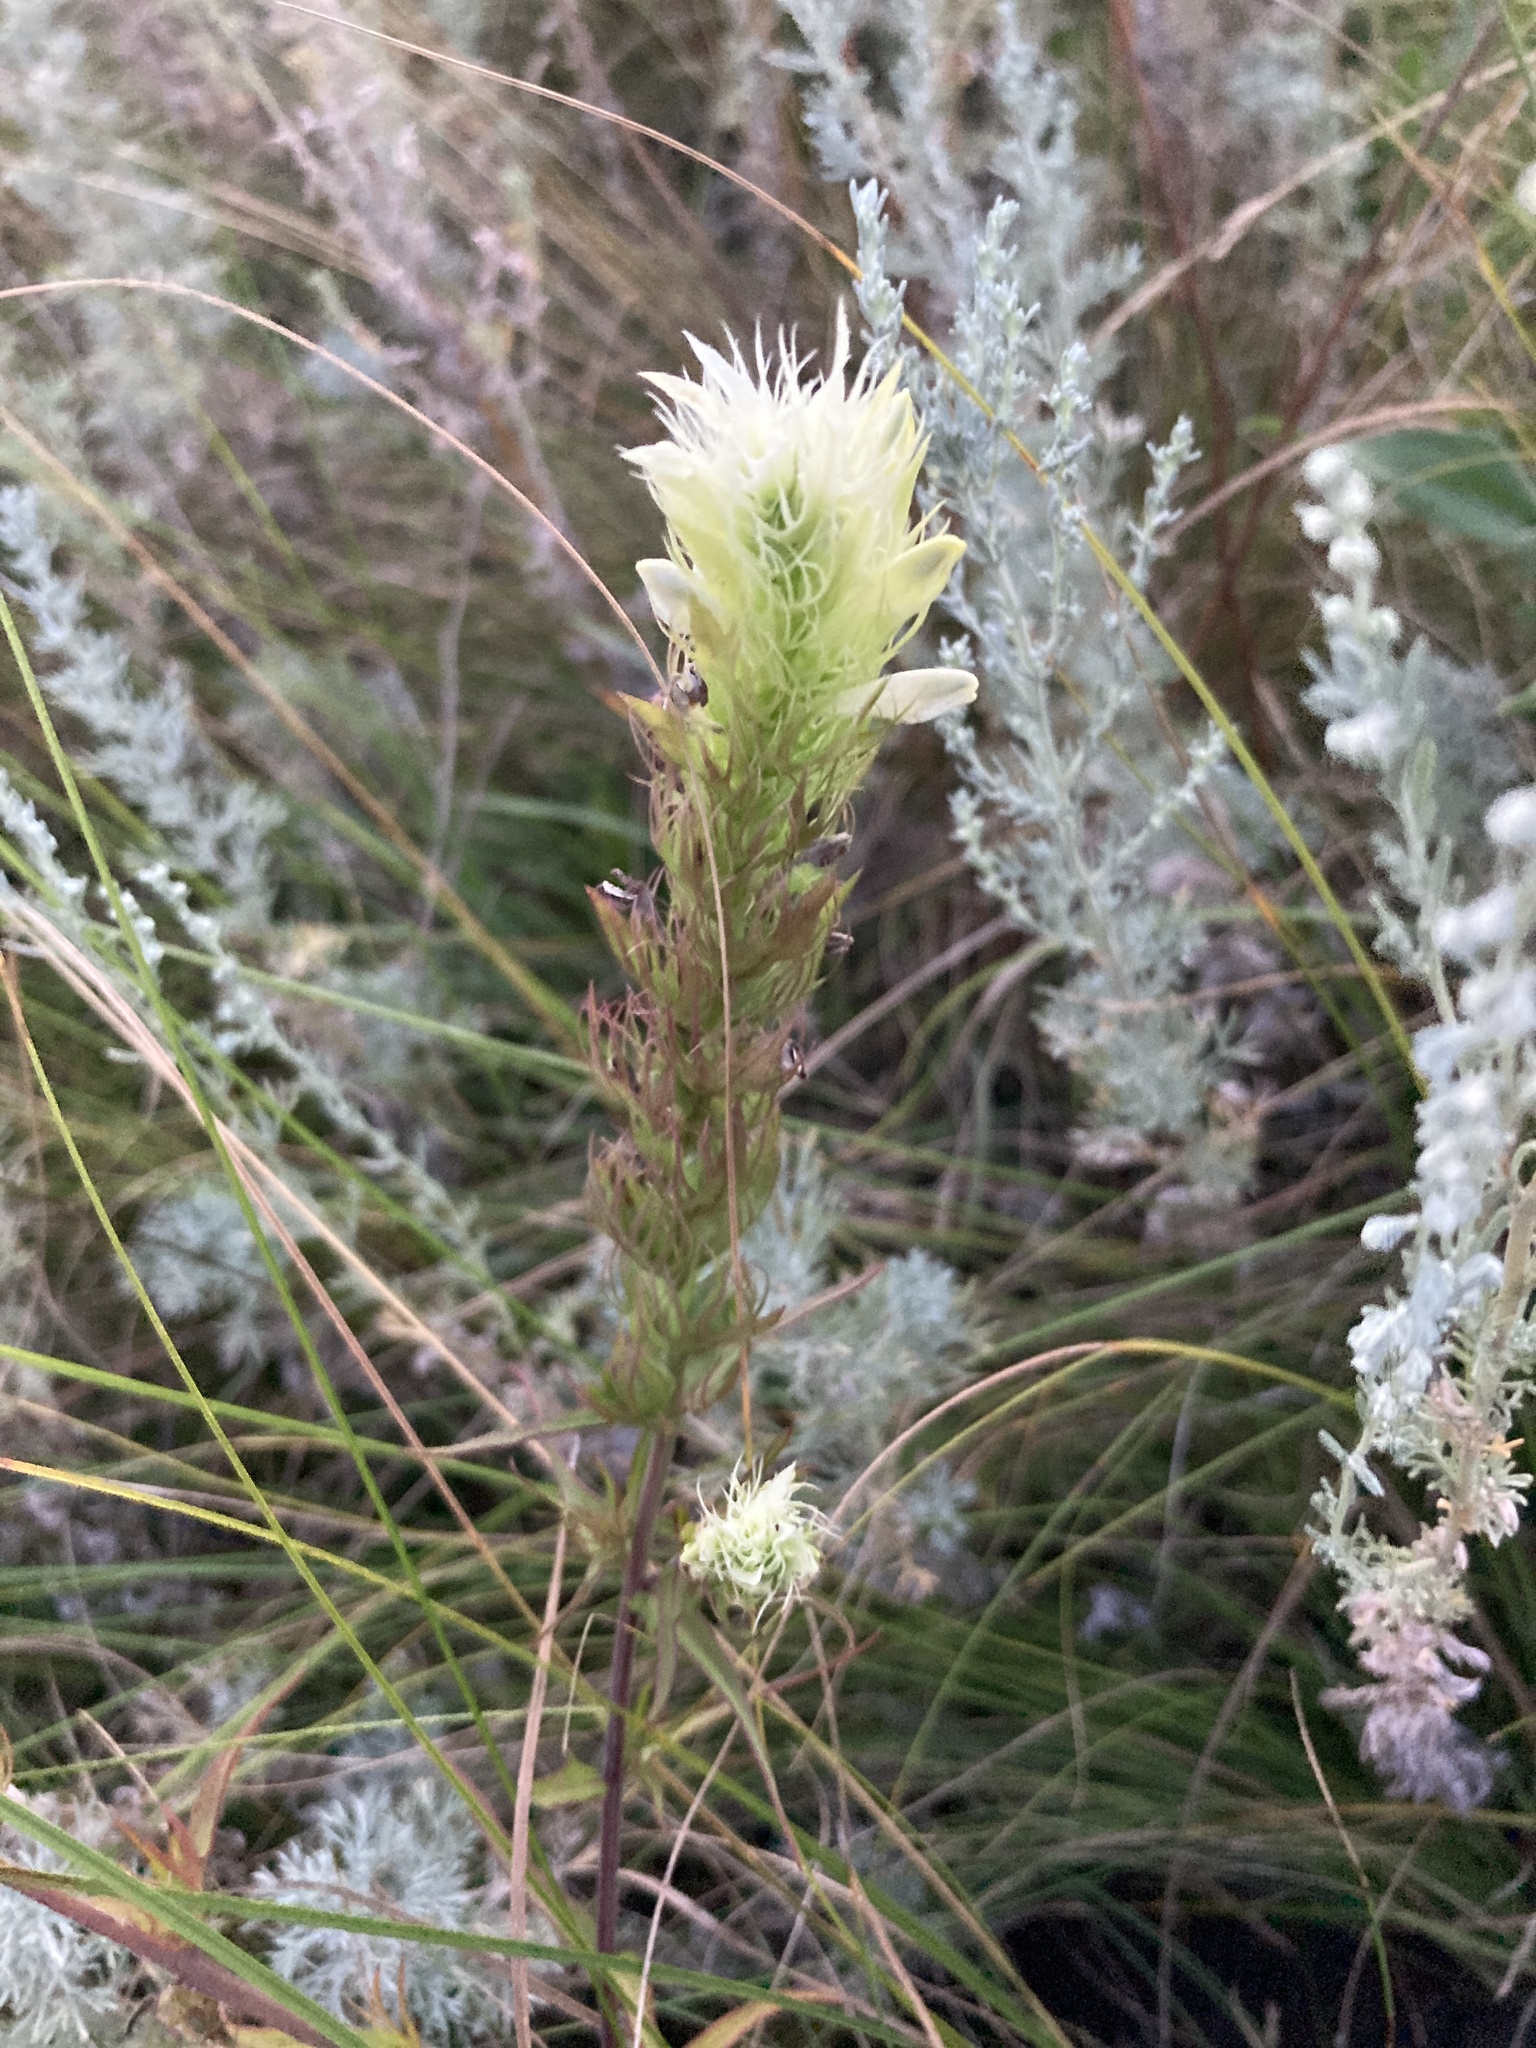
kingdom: Plantae
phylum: Tracheophyta
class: Magnoliopsida
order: Lamiales
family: Orobanchaceae
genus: Melampyrum
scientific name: Melampyrum arvense
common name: Field cow-wheat
